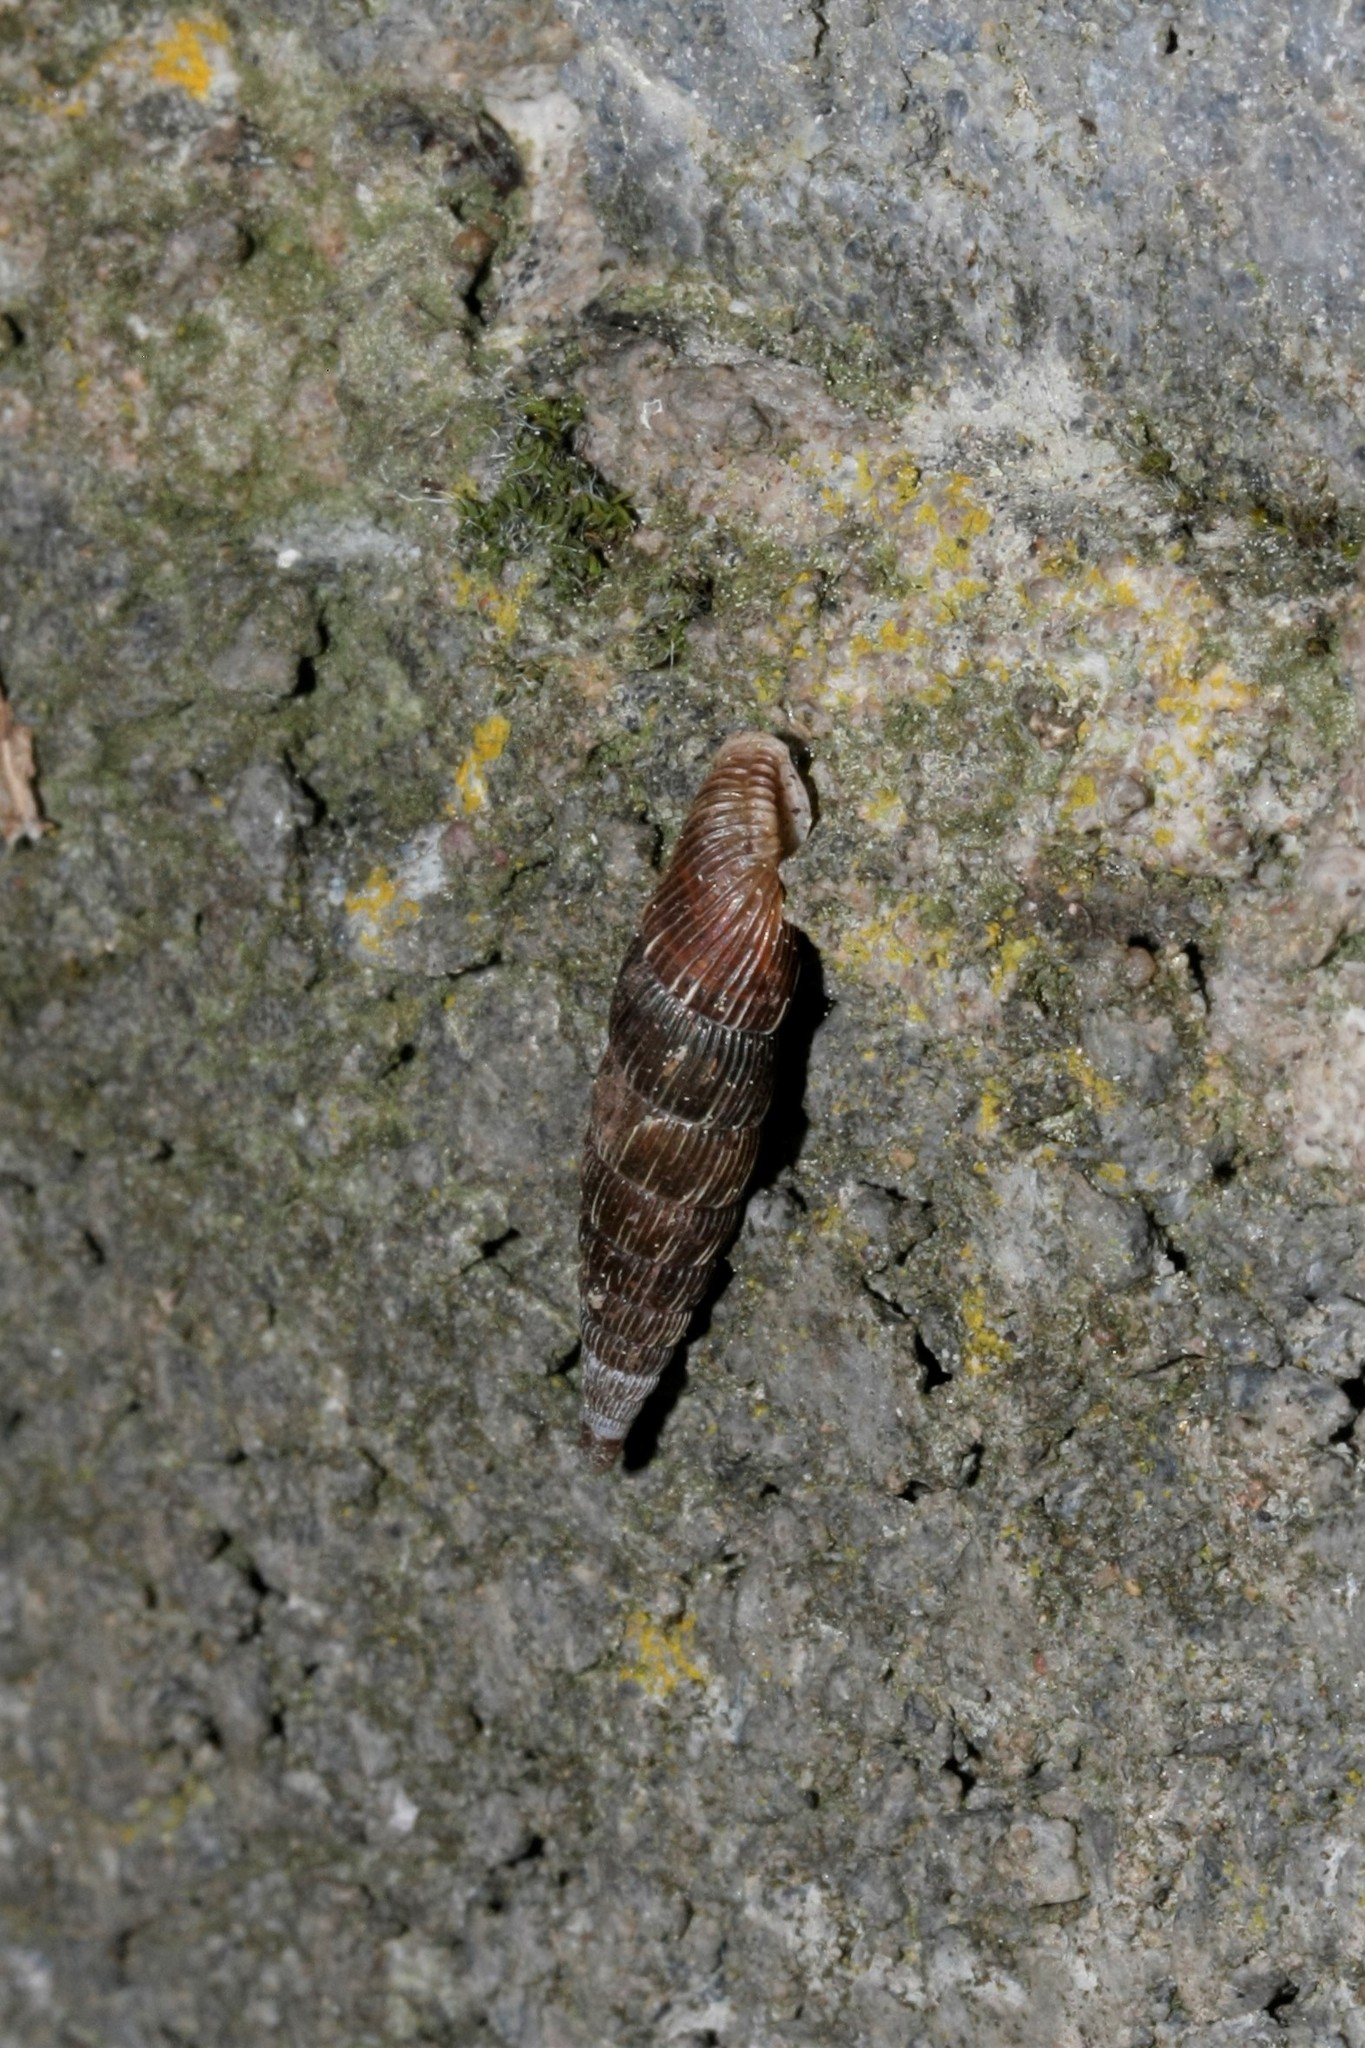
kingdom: Animalia
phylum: Mollusca
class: Gastropoda
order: Stylommatophora
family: Clausiliidae
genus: Alinda
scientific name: Alinda biplicata
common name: Thames door snail
